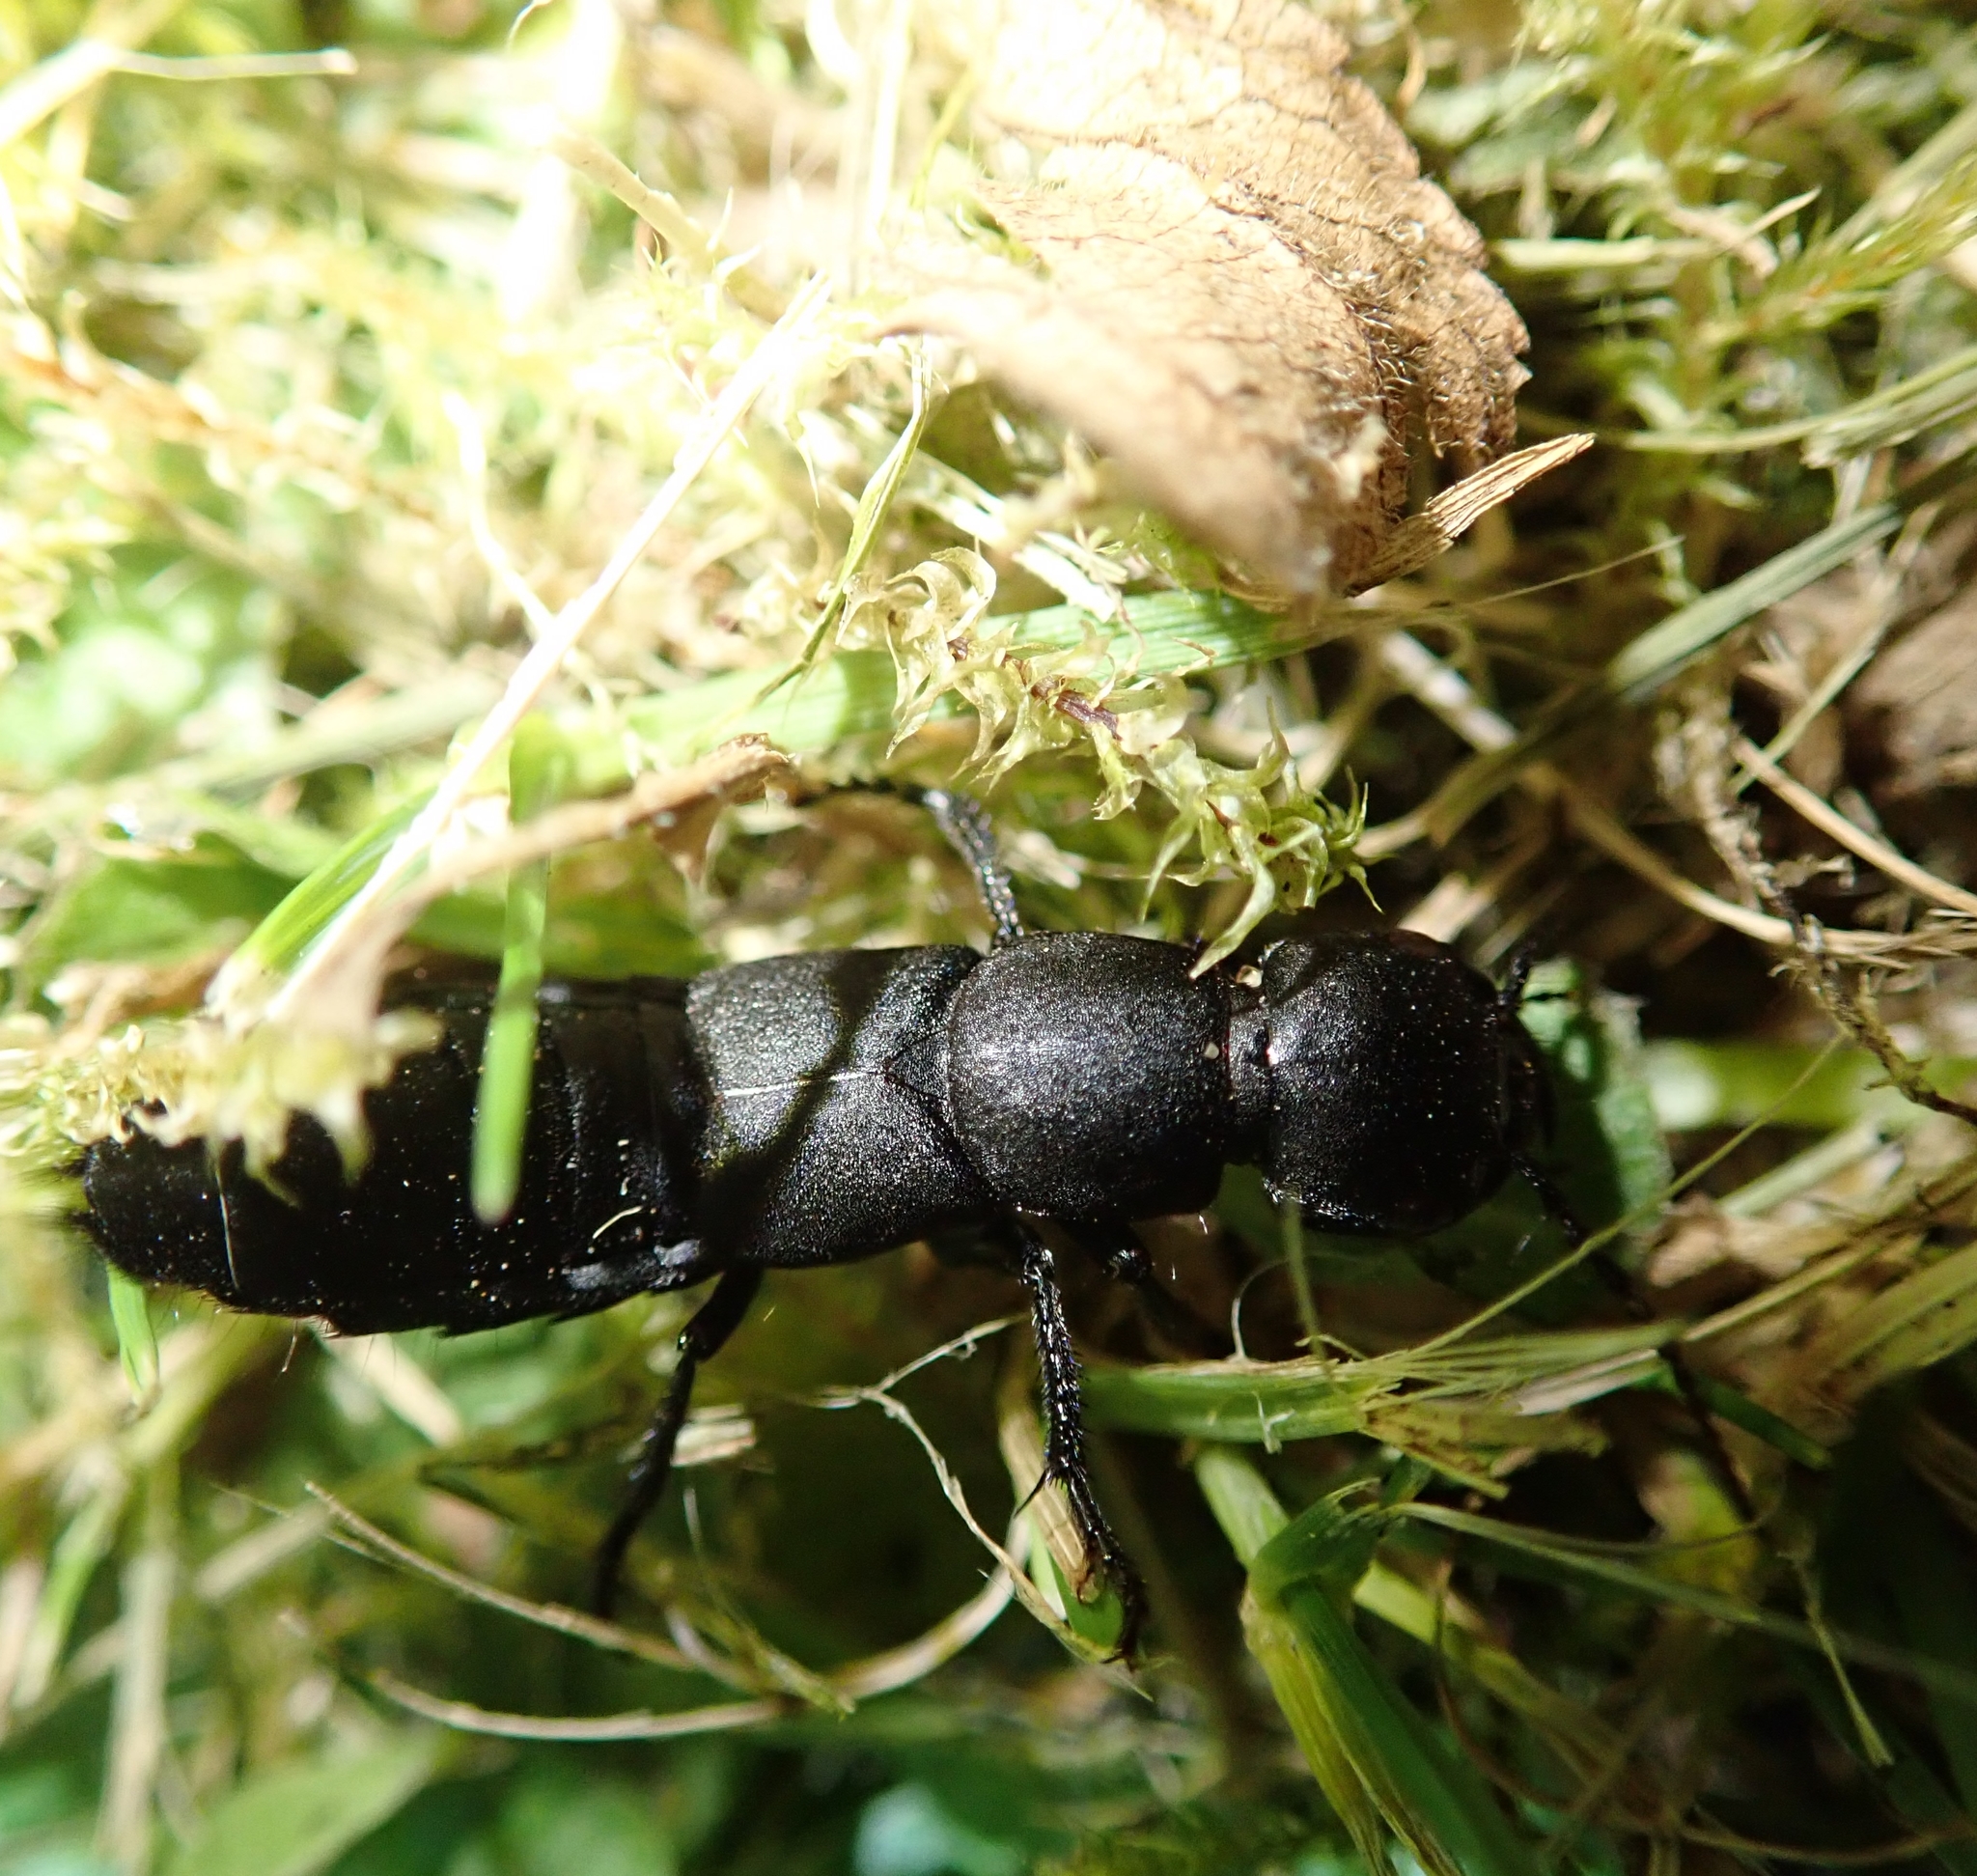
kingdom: Animalia
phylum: Arthropoda
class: Insecta
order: Coleoptera
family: Staphylinidae
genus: Ocypus
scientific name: Ocypus olens
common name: Devil's coach-horse
